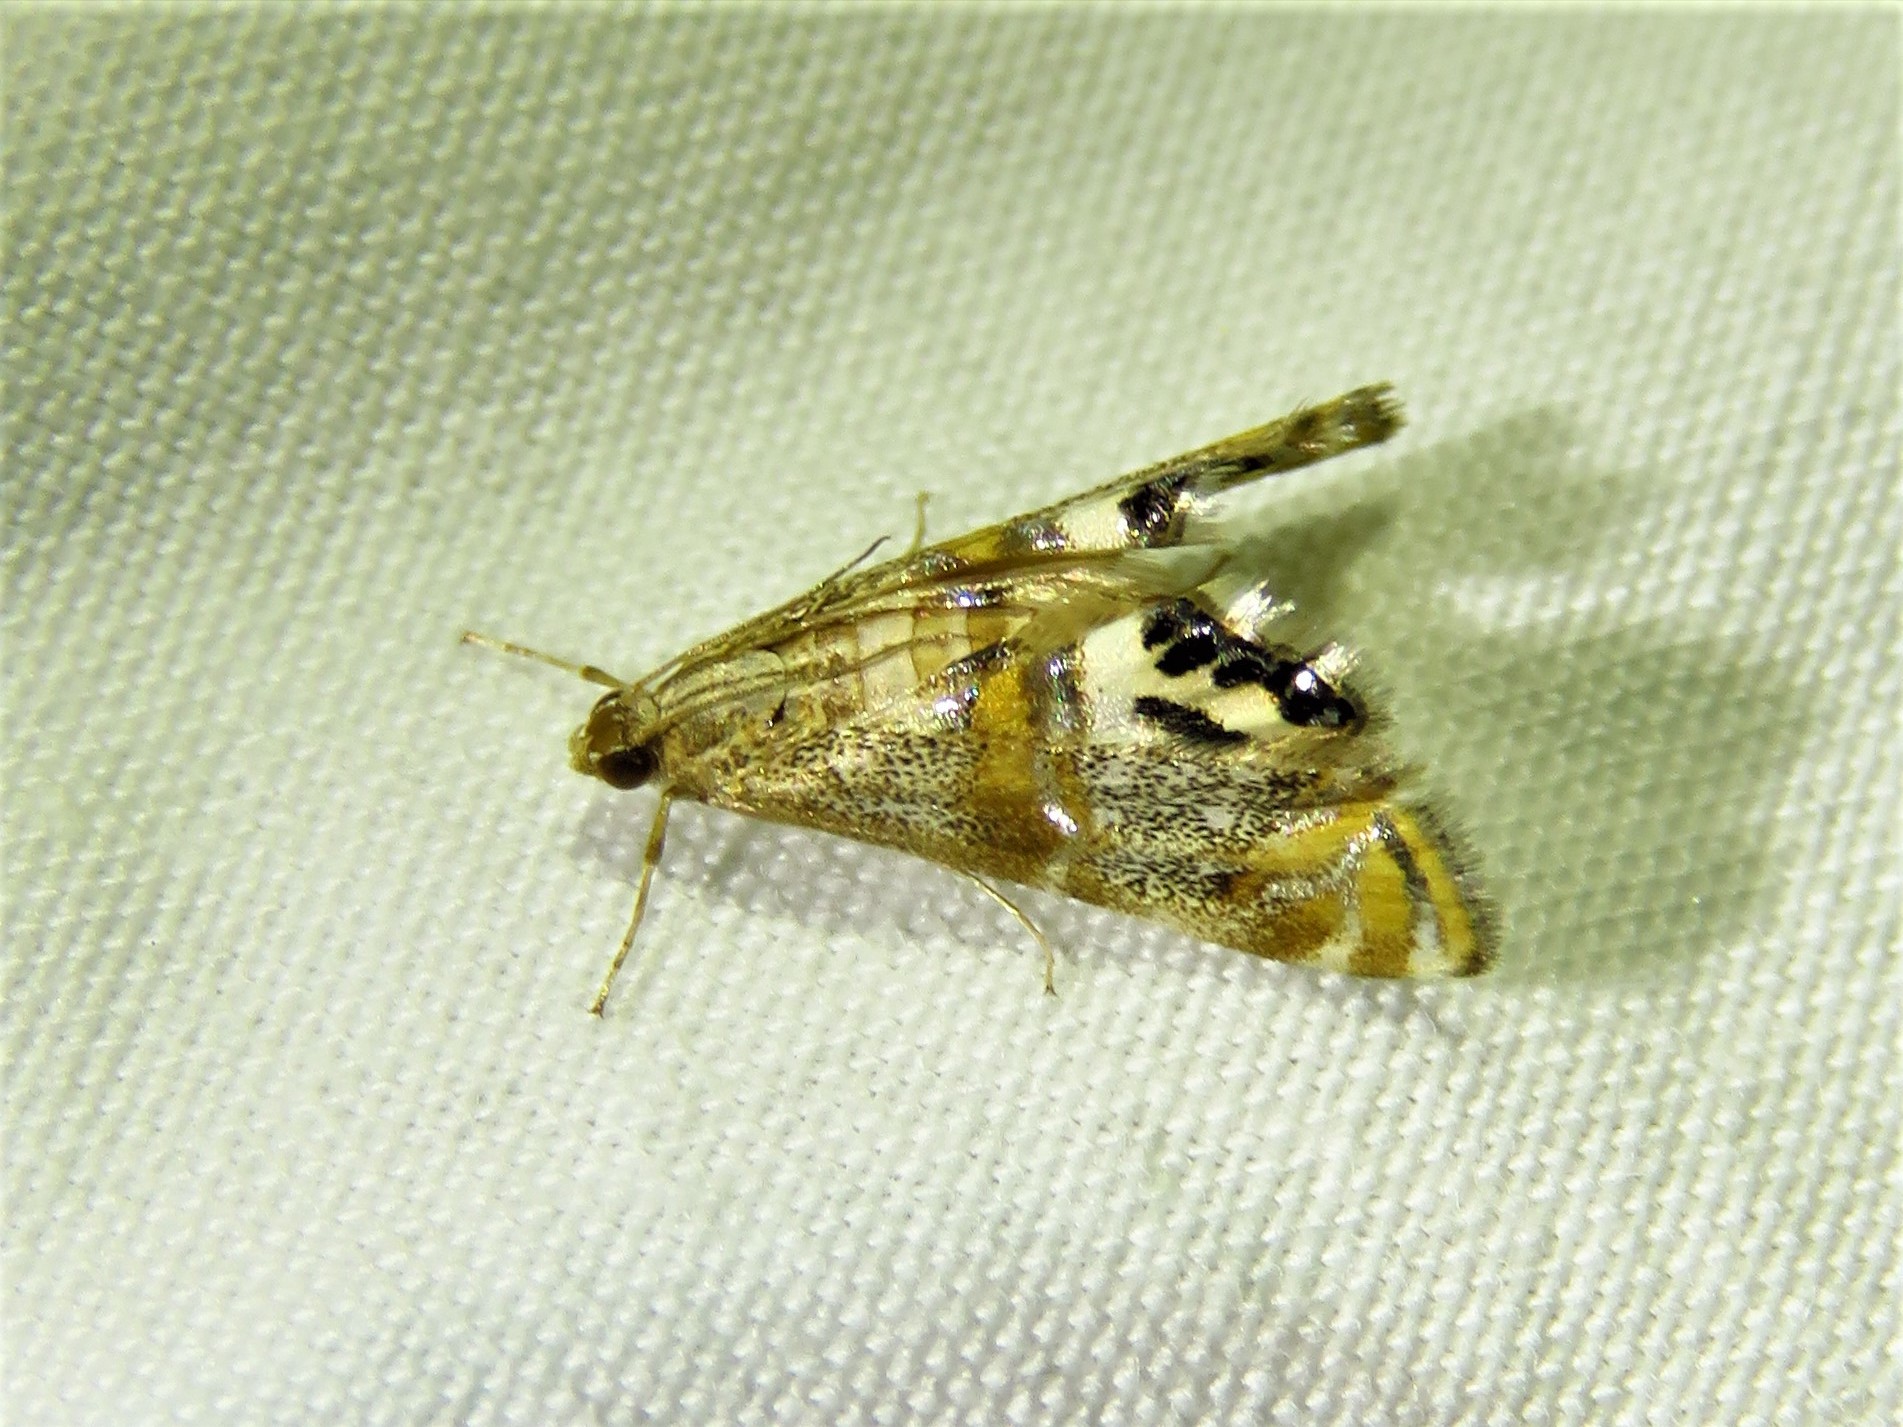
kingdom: Animalia
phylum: Arthropoda
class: Insecta
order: Lepidoptera
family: Crambidae
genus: Petrophila
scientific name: Petrophila bifascialis
